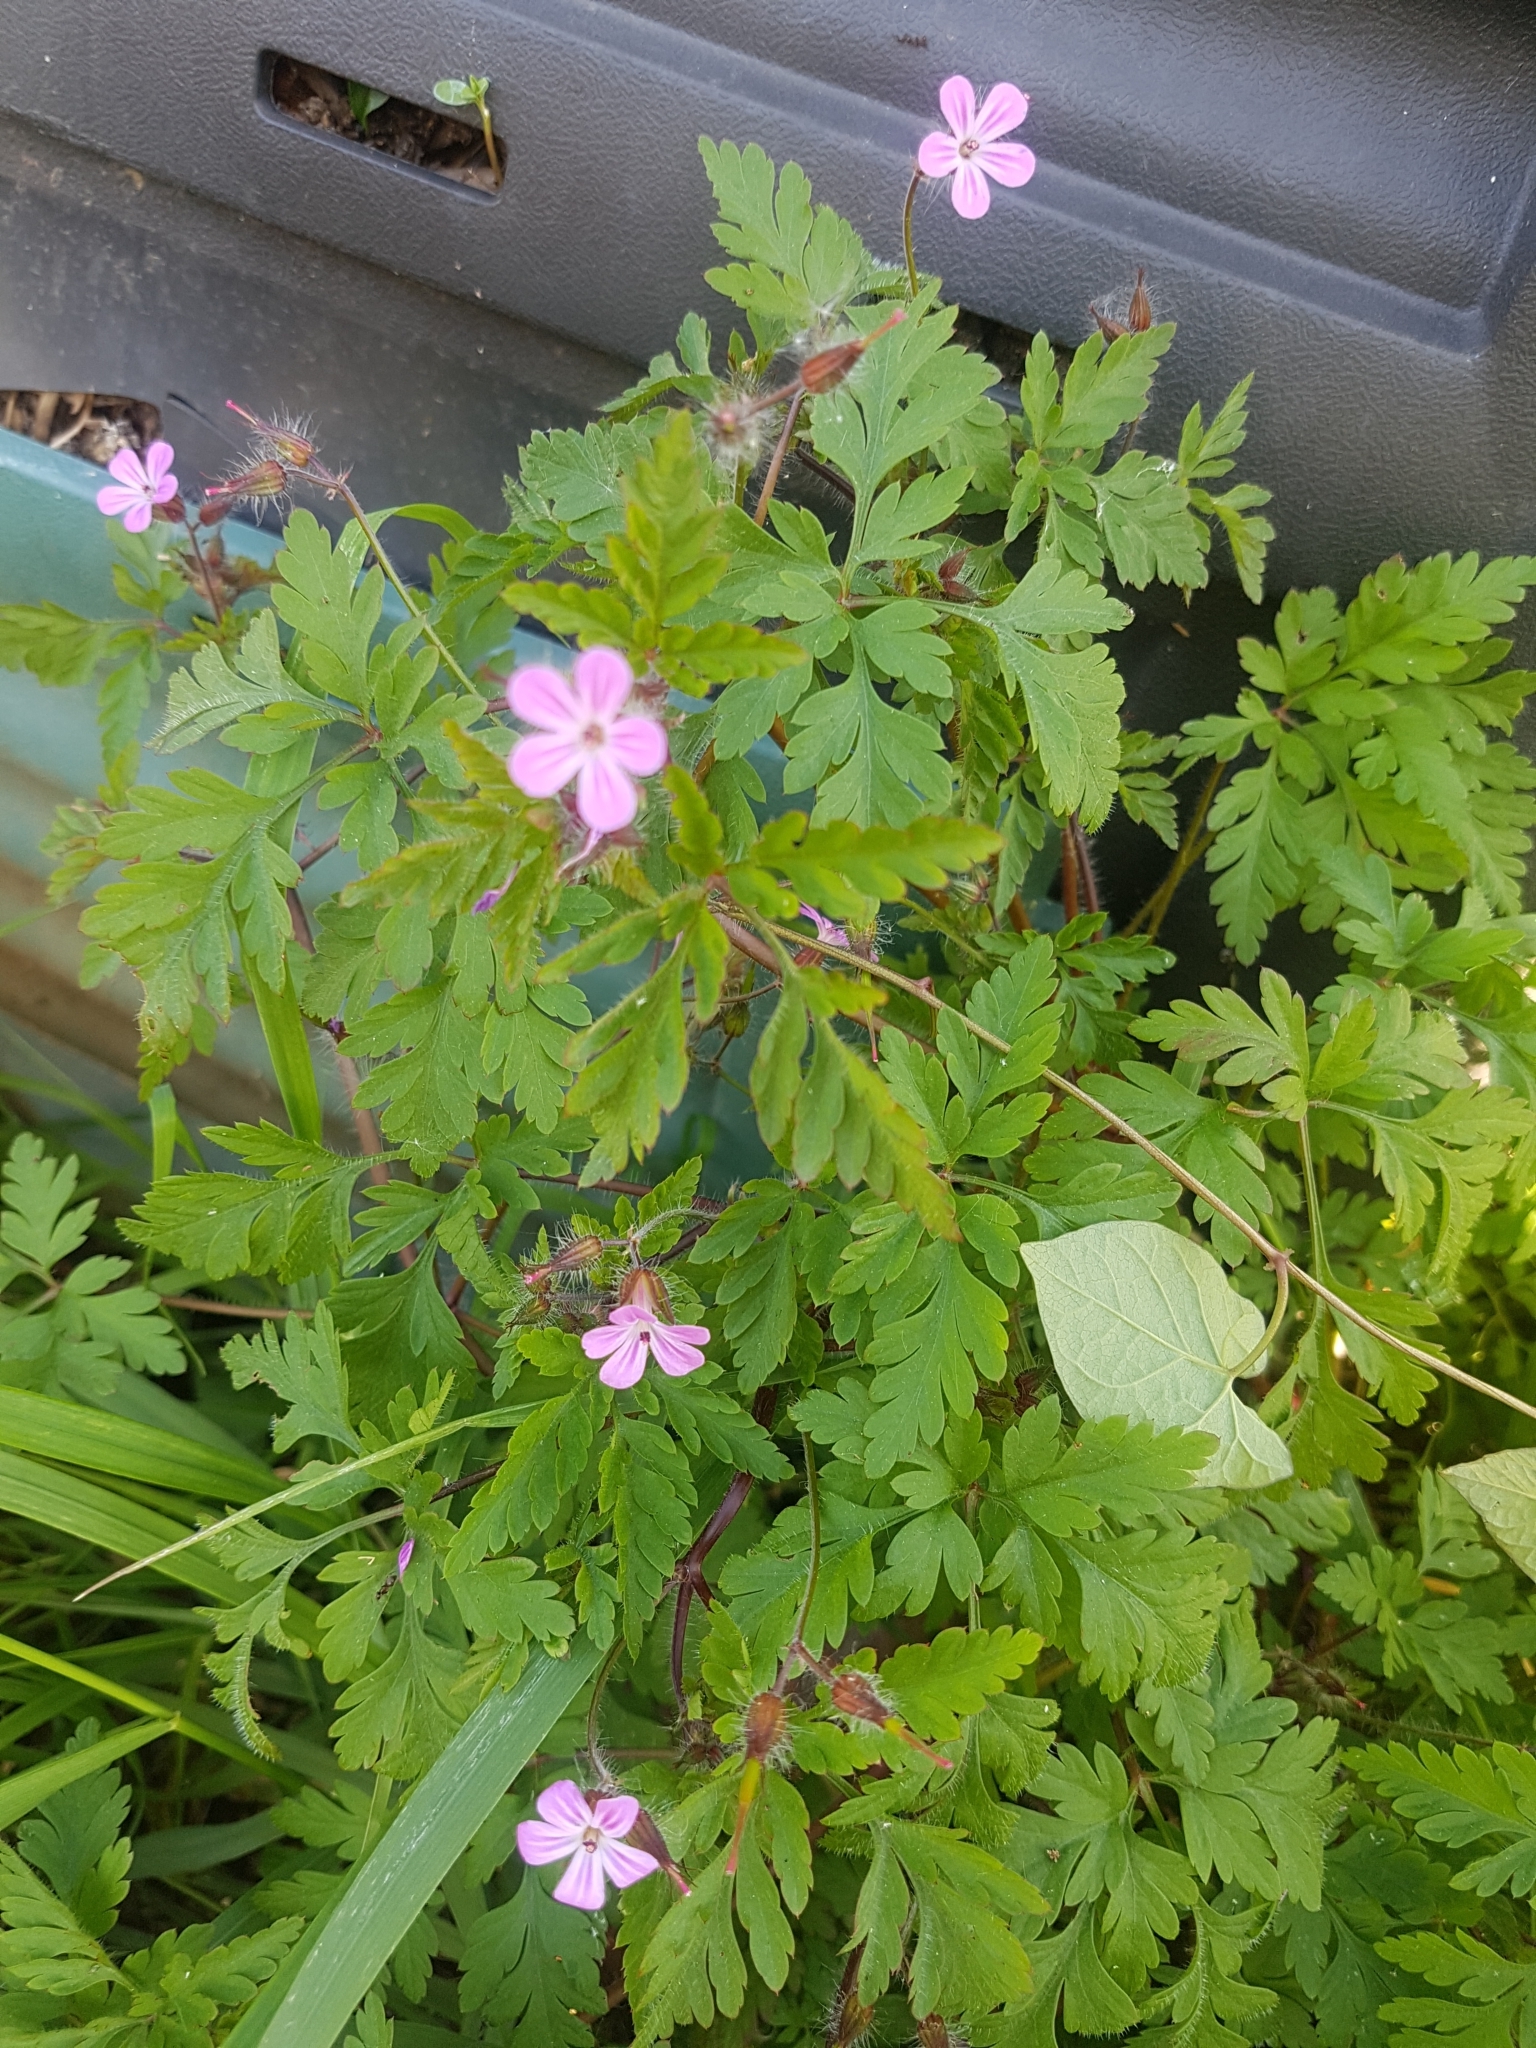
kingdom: Plantae
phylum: Tracheophyta
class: Magnoliopsida
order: Geraniales
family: Geraniaceae
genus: Geranium
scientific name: Geranium robertianum
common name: Herb-robert
